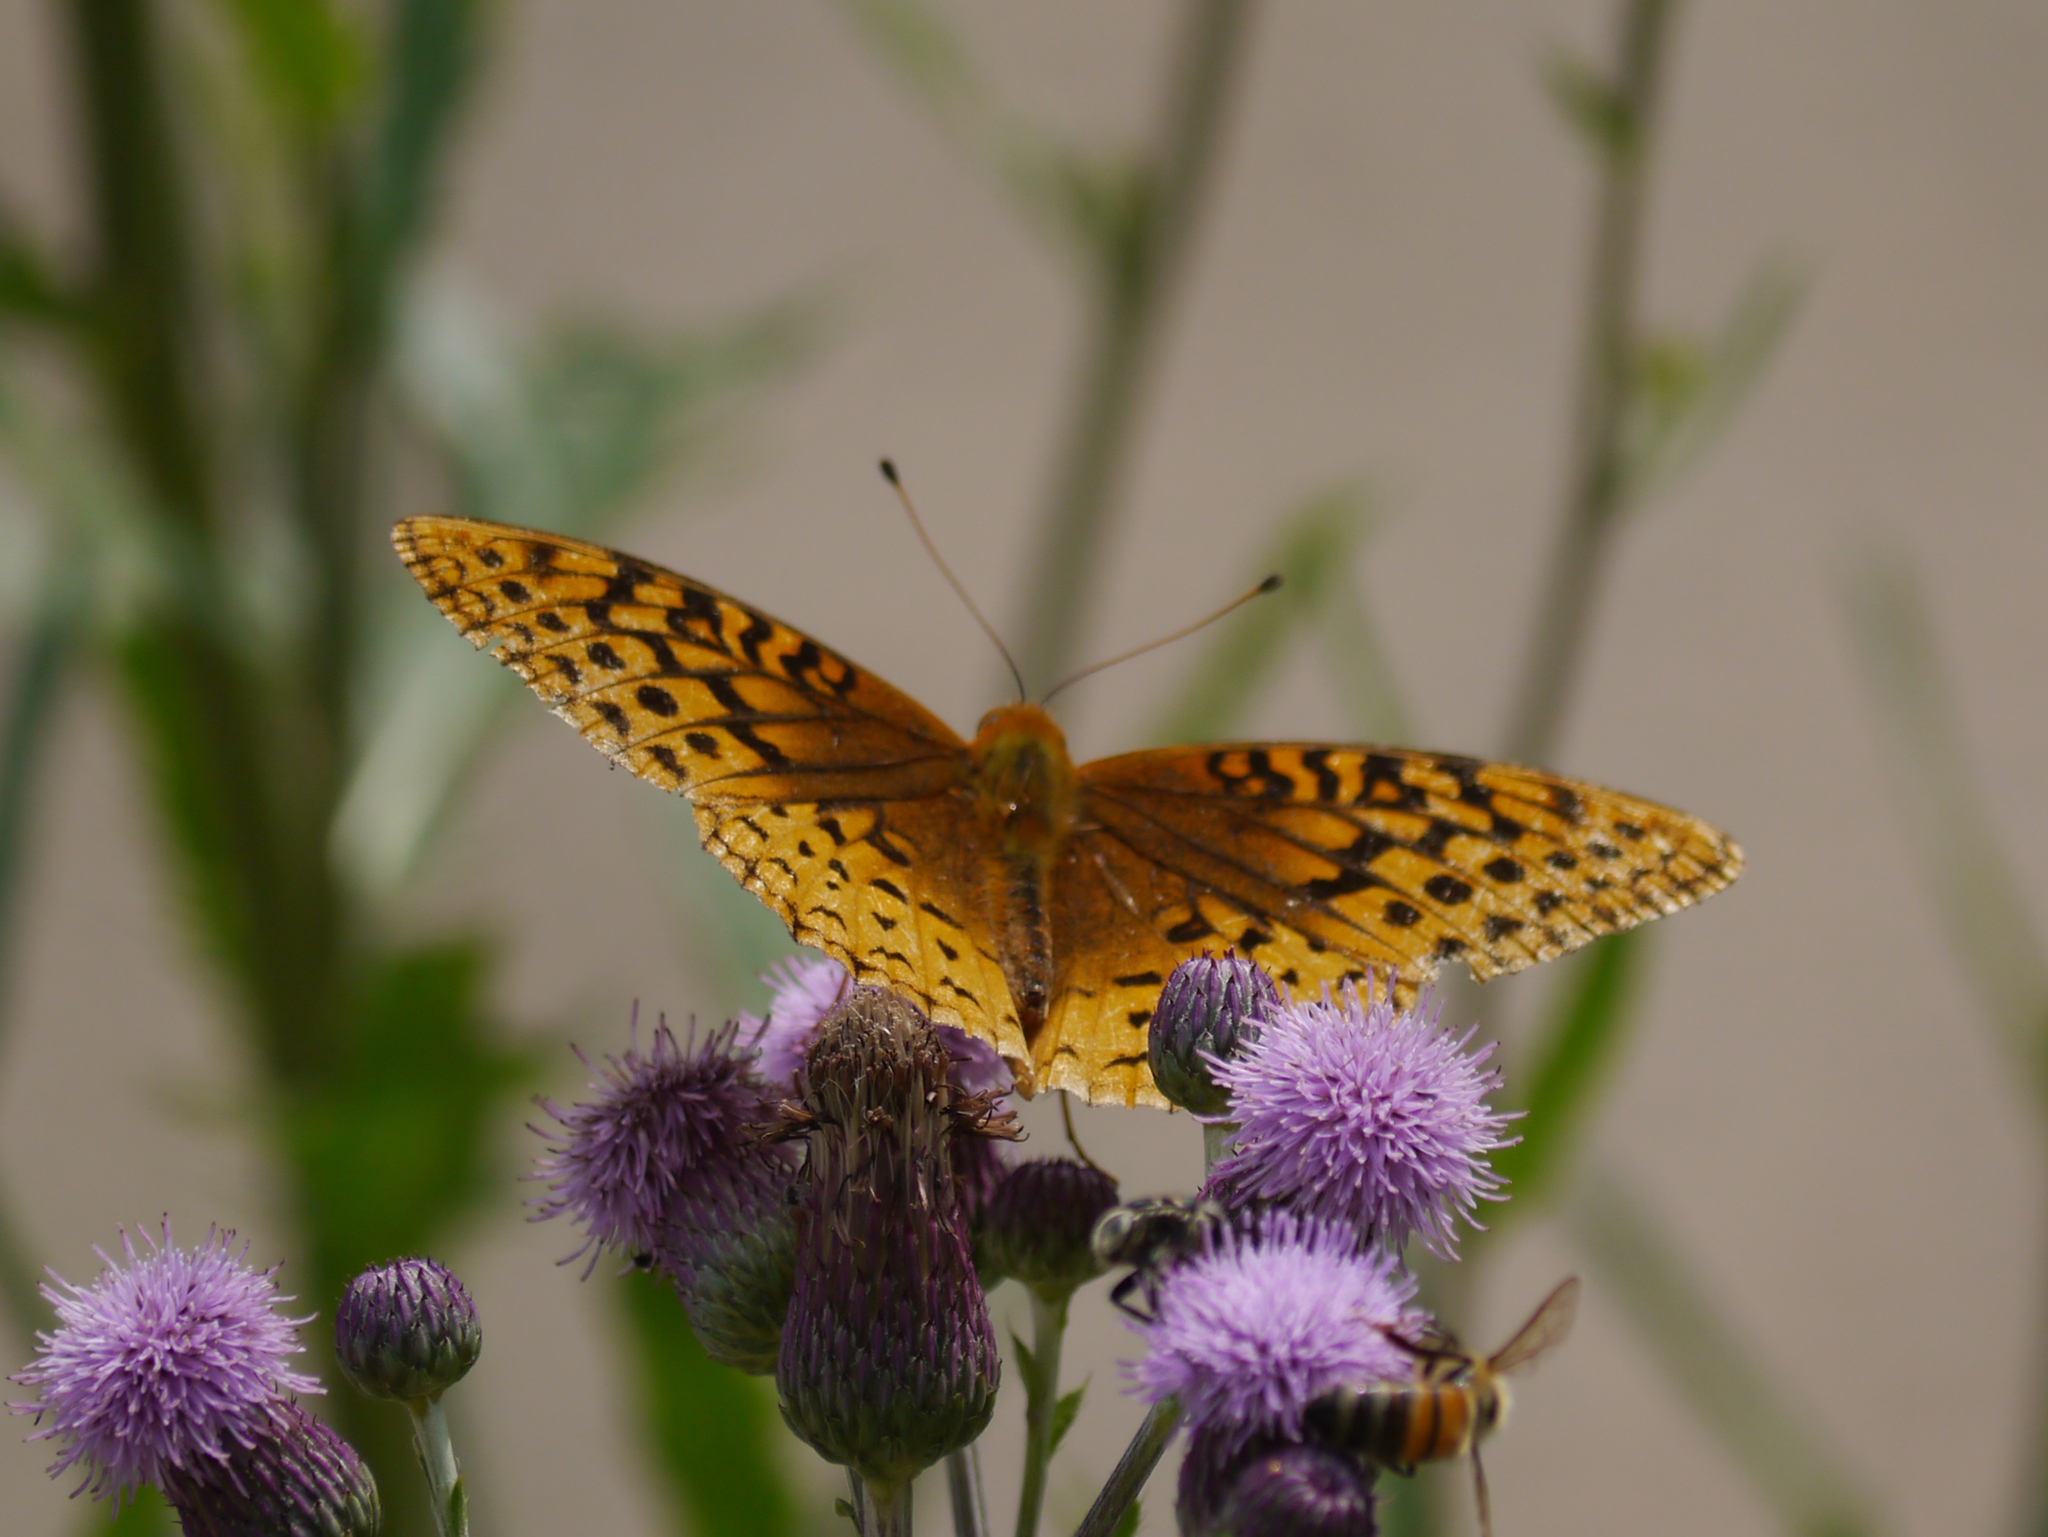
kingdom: Animalia
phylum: Arthropoda
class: Insecta
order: Lepidoptera
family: Nymphalidae
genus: Speyeria
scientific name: Speyeria cybele
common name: Great spangled fritillary
